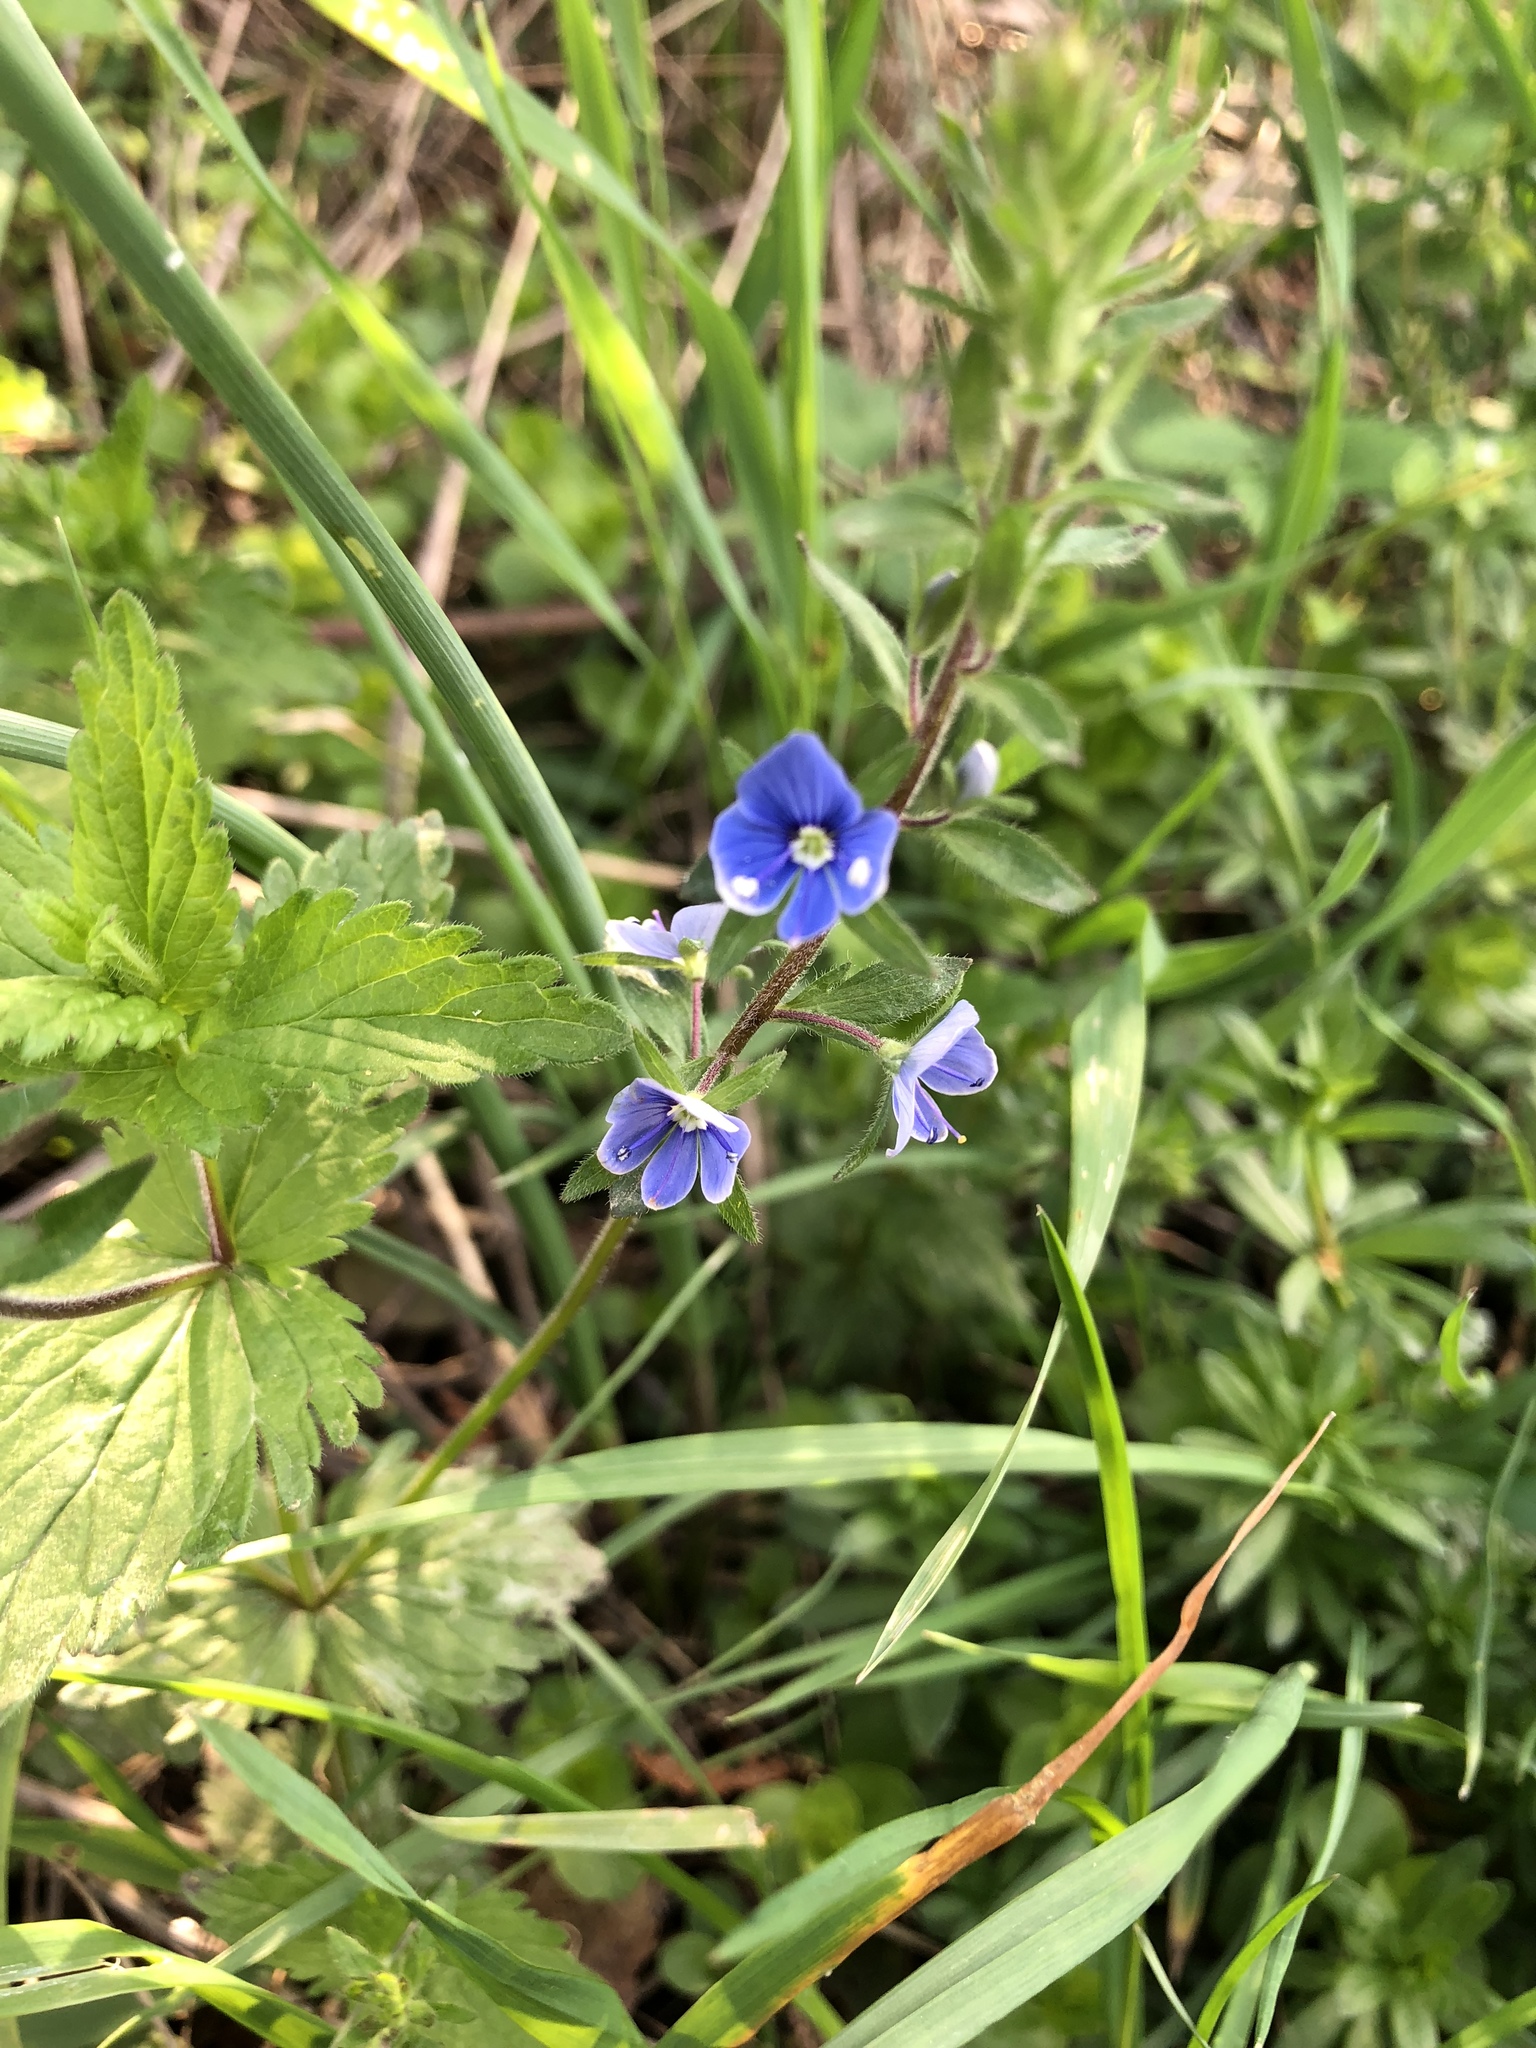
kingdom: Plantae
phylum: Tracheophyta
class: Magnoliopsida
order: Lamiales
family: Plantaginaceae
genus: Veronica
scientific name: Veronica chamaedrys
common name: Germander speedwell
